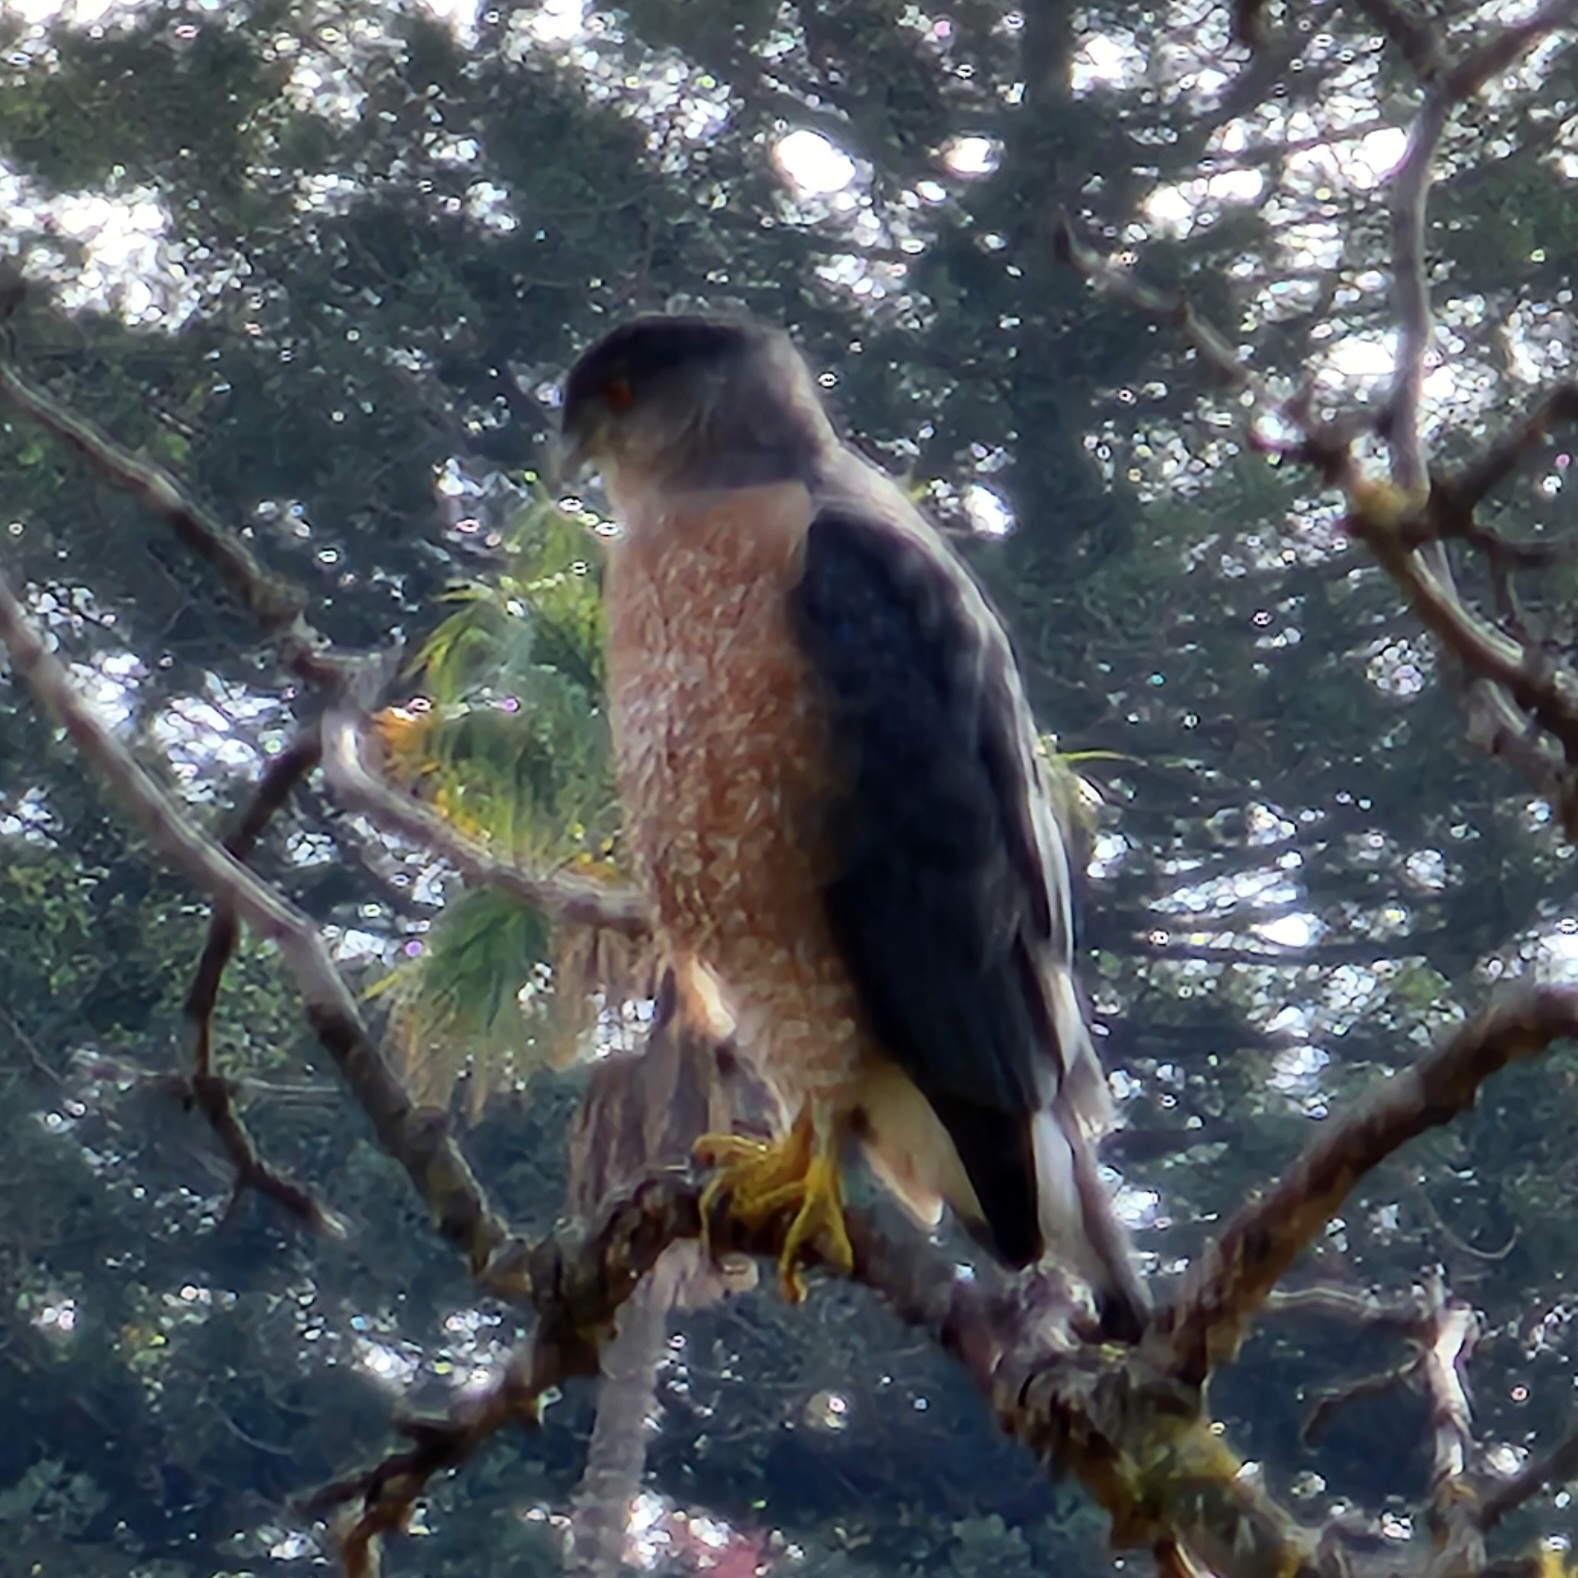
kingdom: Animalia
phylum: Chordata
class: Aves
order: Accipitriformes
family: Accipitridae
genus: Accipiter
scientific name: Accipiter cooperii
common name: Cooper's hawk
